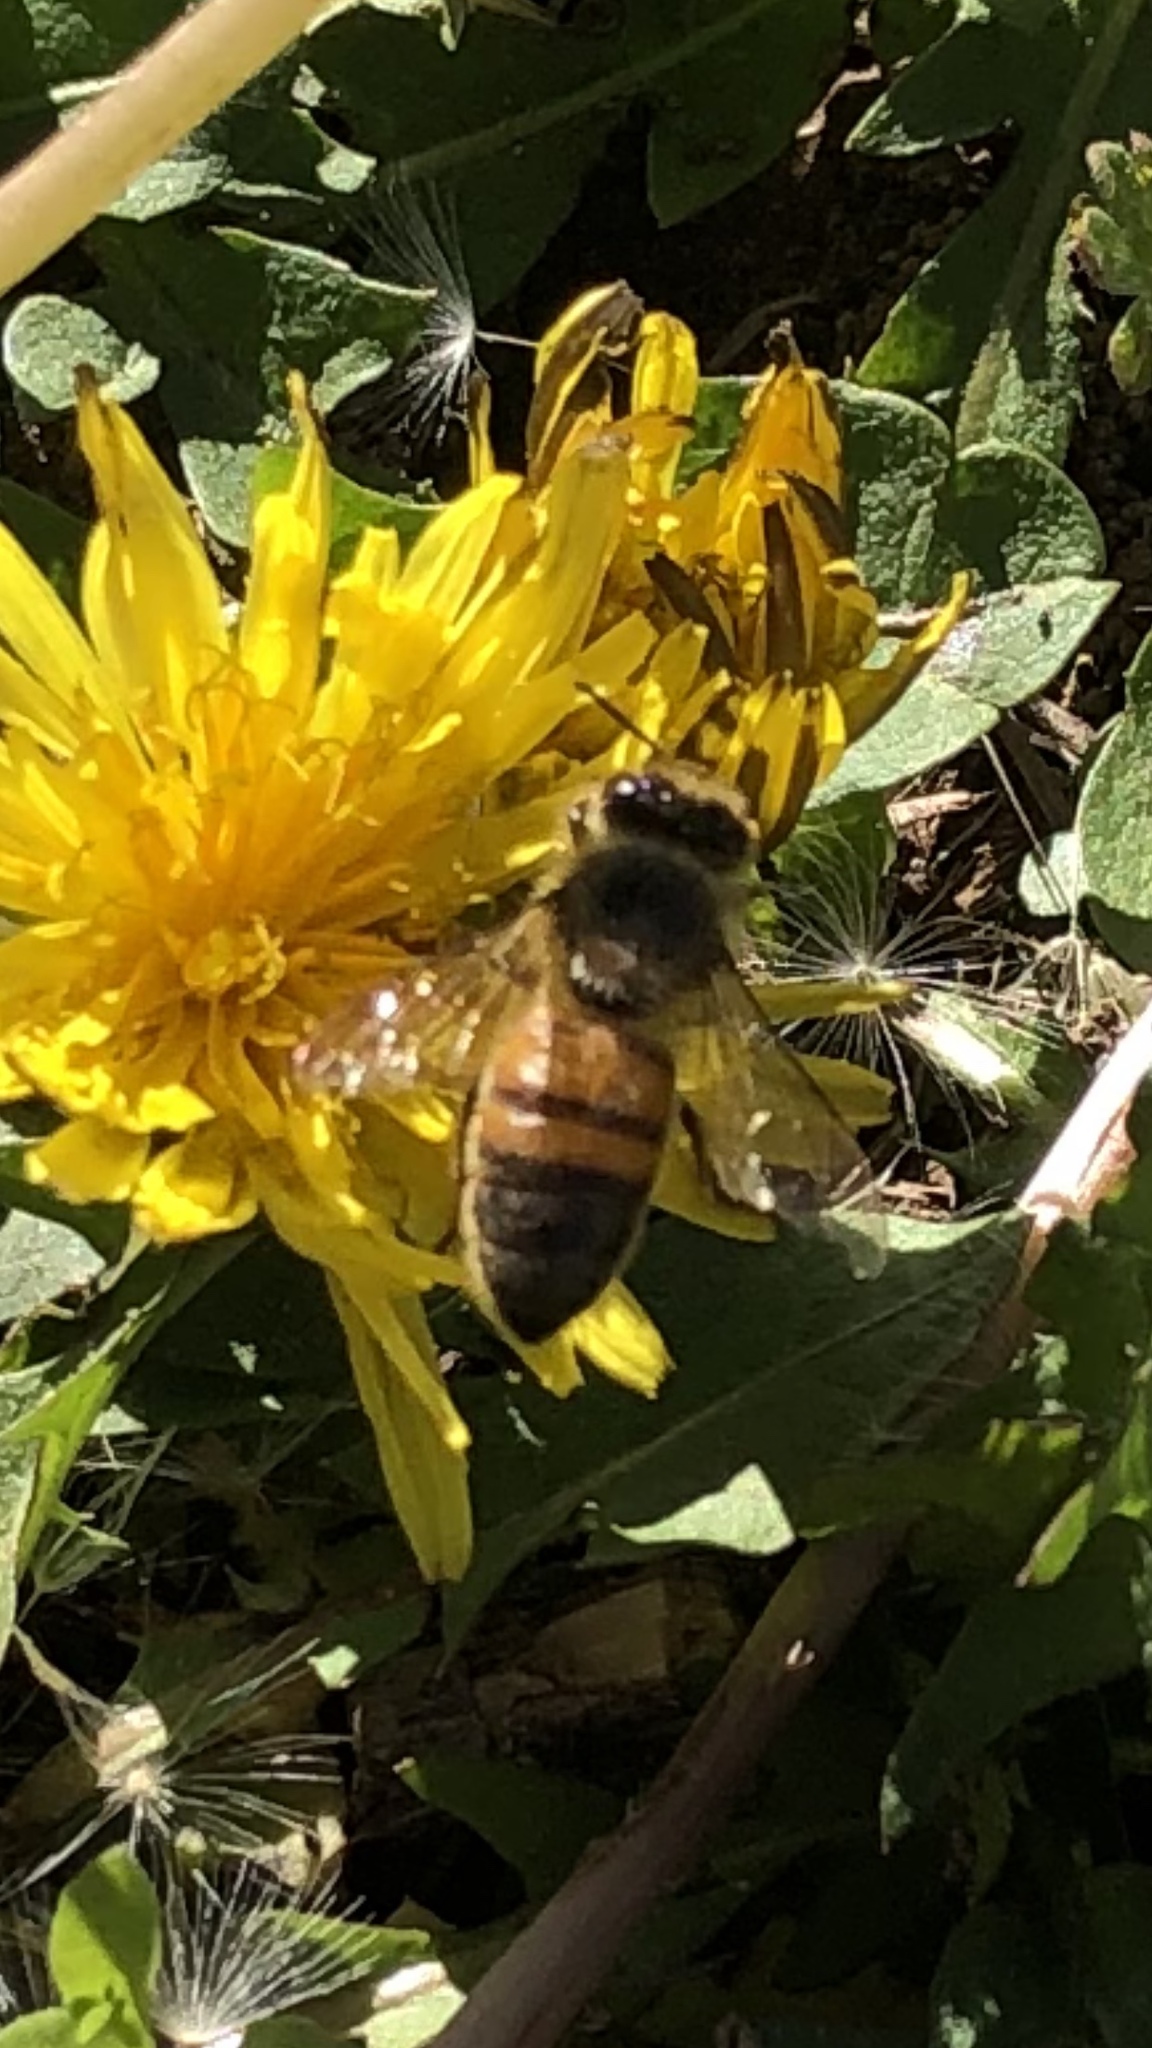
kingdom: Animalia
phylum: Arthropoda
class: Insecta
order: Hymenoptera
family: Apidae
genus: Apis
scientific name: Apis mellifera
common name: Honey bee
